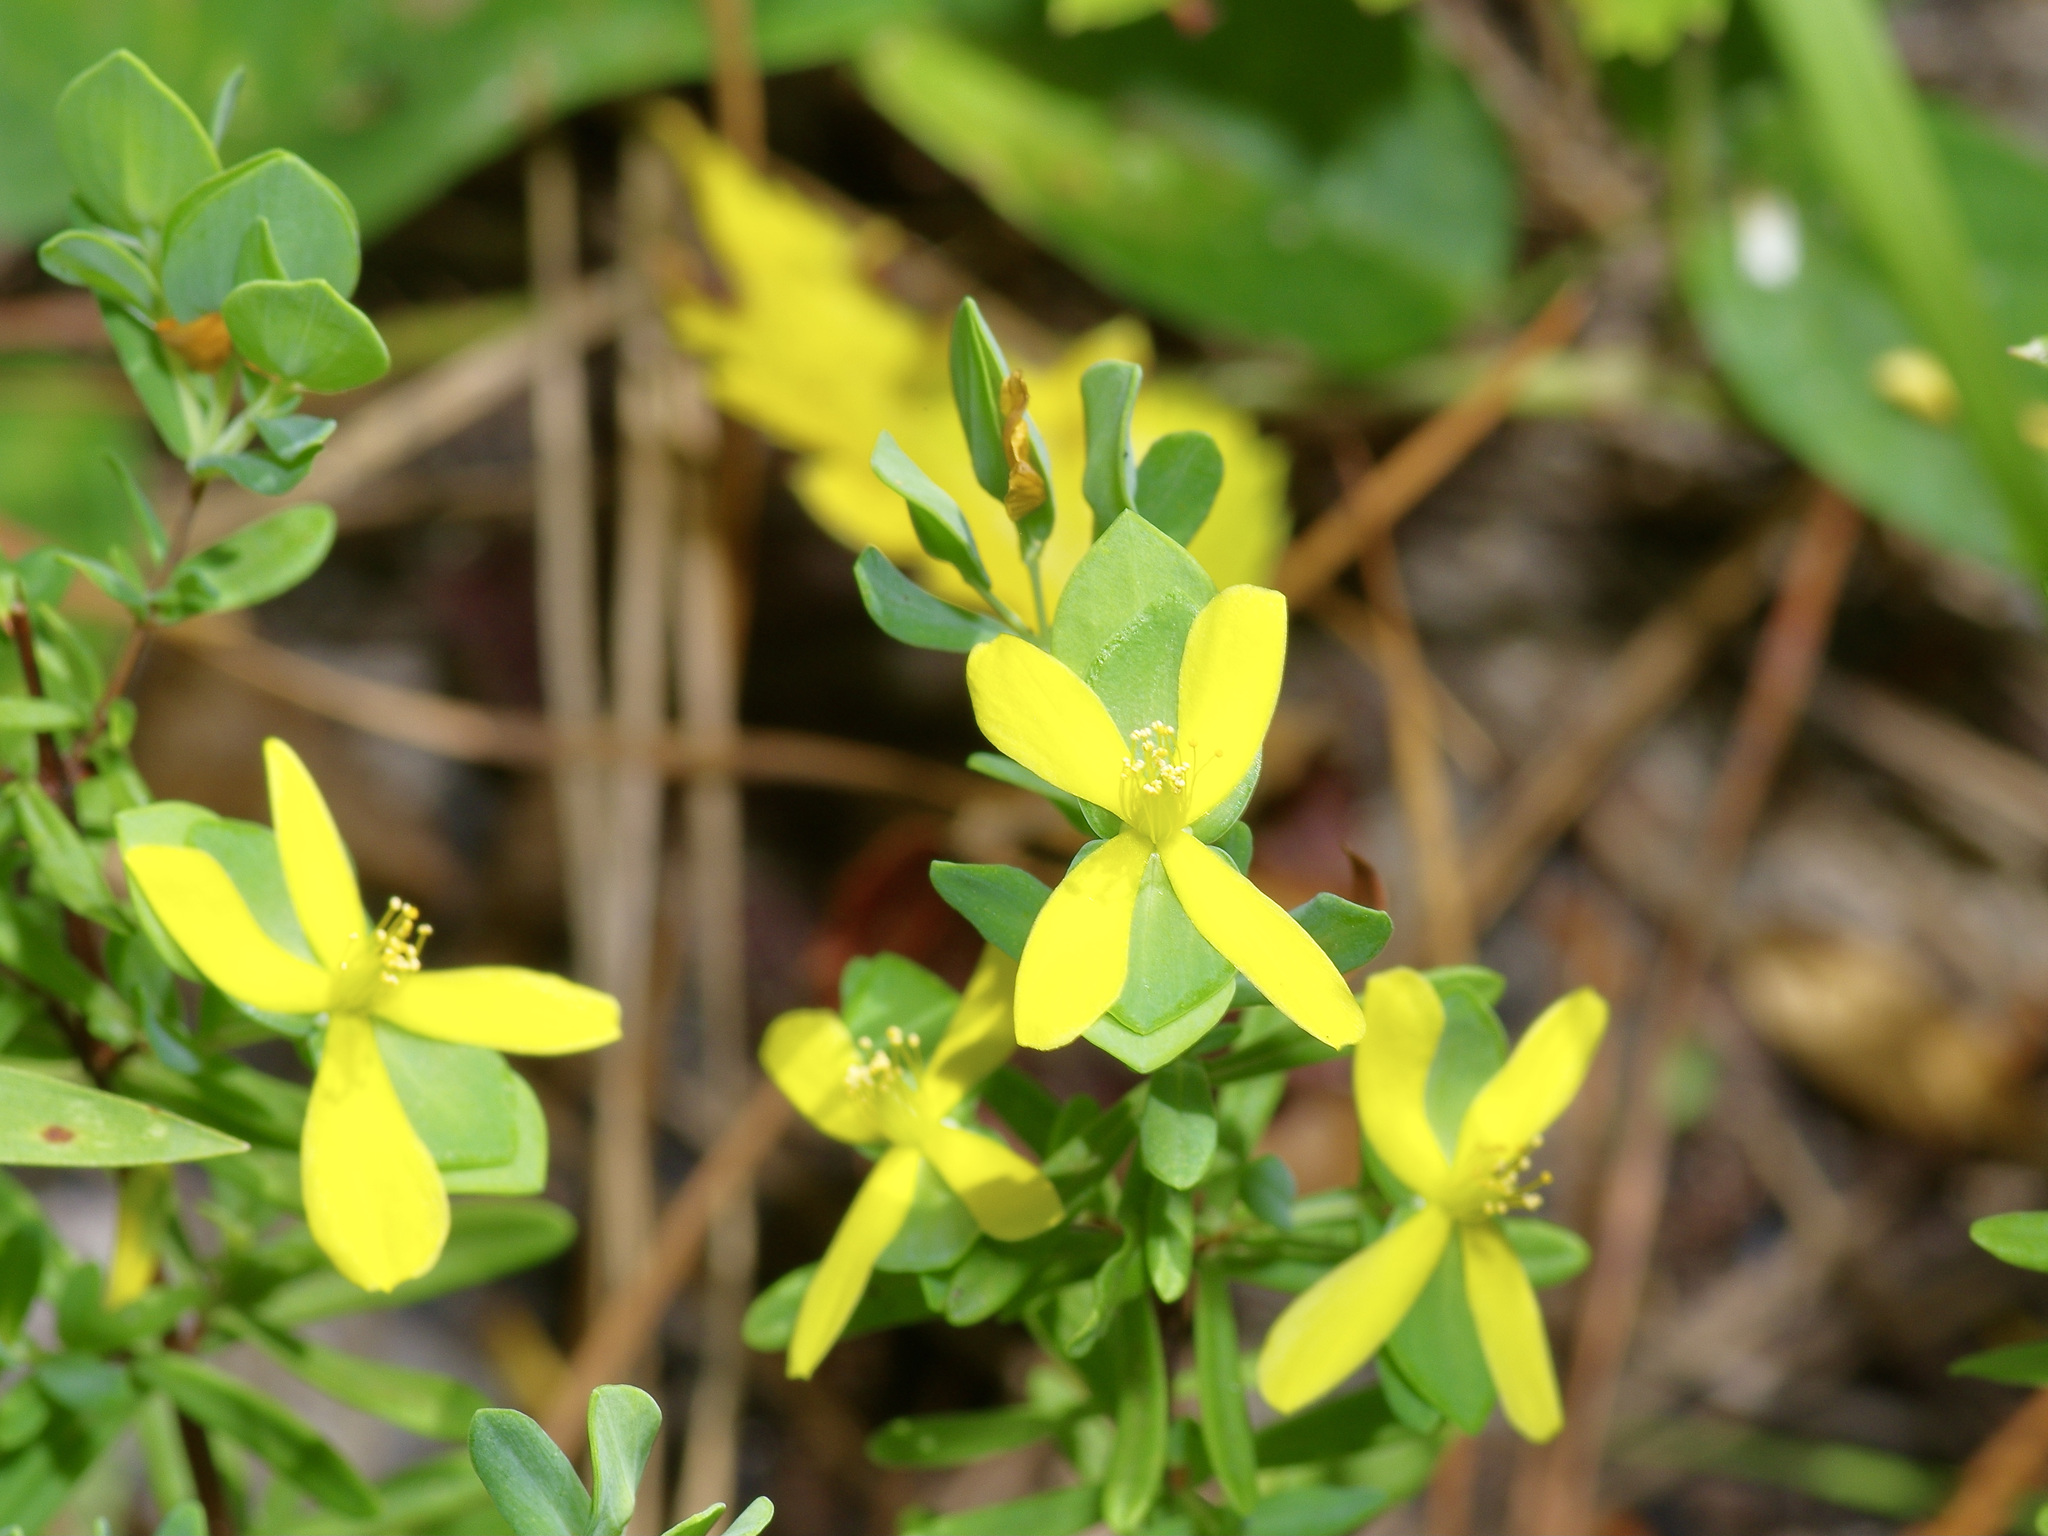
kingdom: Plantae
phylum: Tracheophyta
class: Magnoliopsida
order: Malpighiales
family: Hypericaceae
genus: Hypericum
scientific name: Hypericum hypericoides
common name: St. andrew's cross
